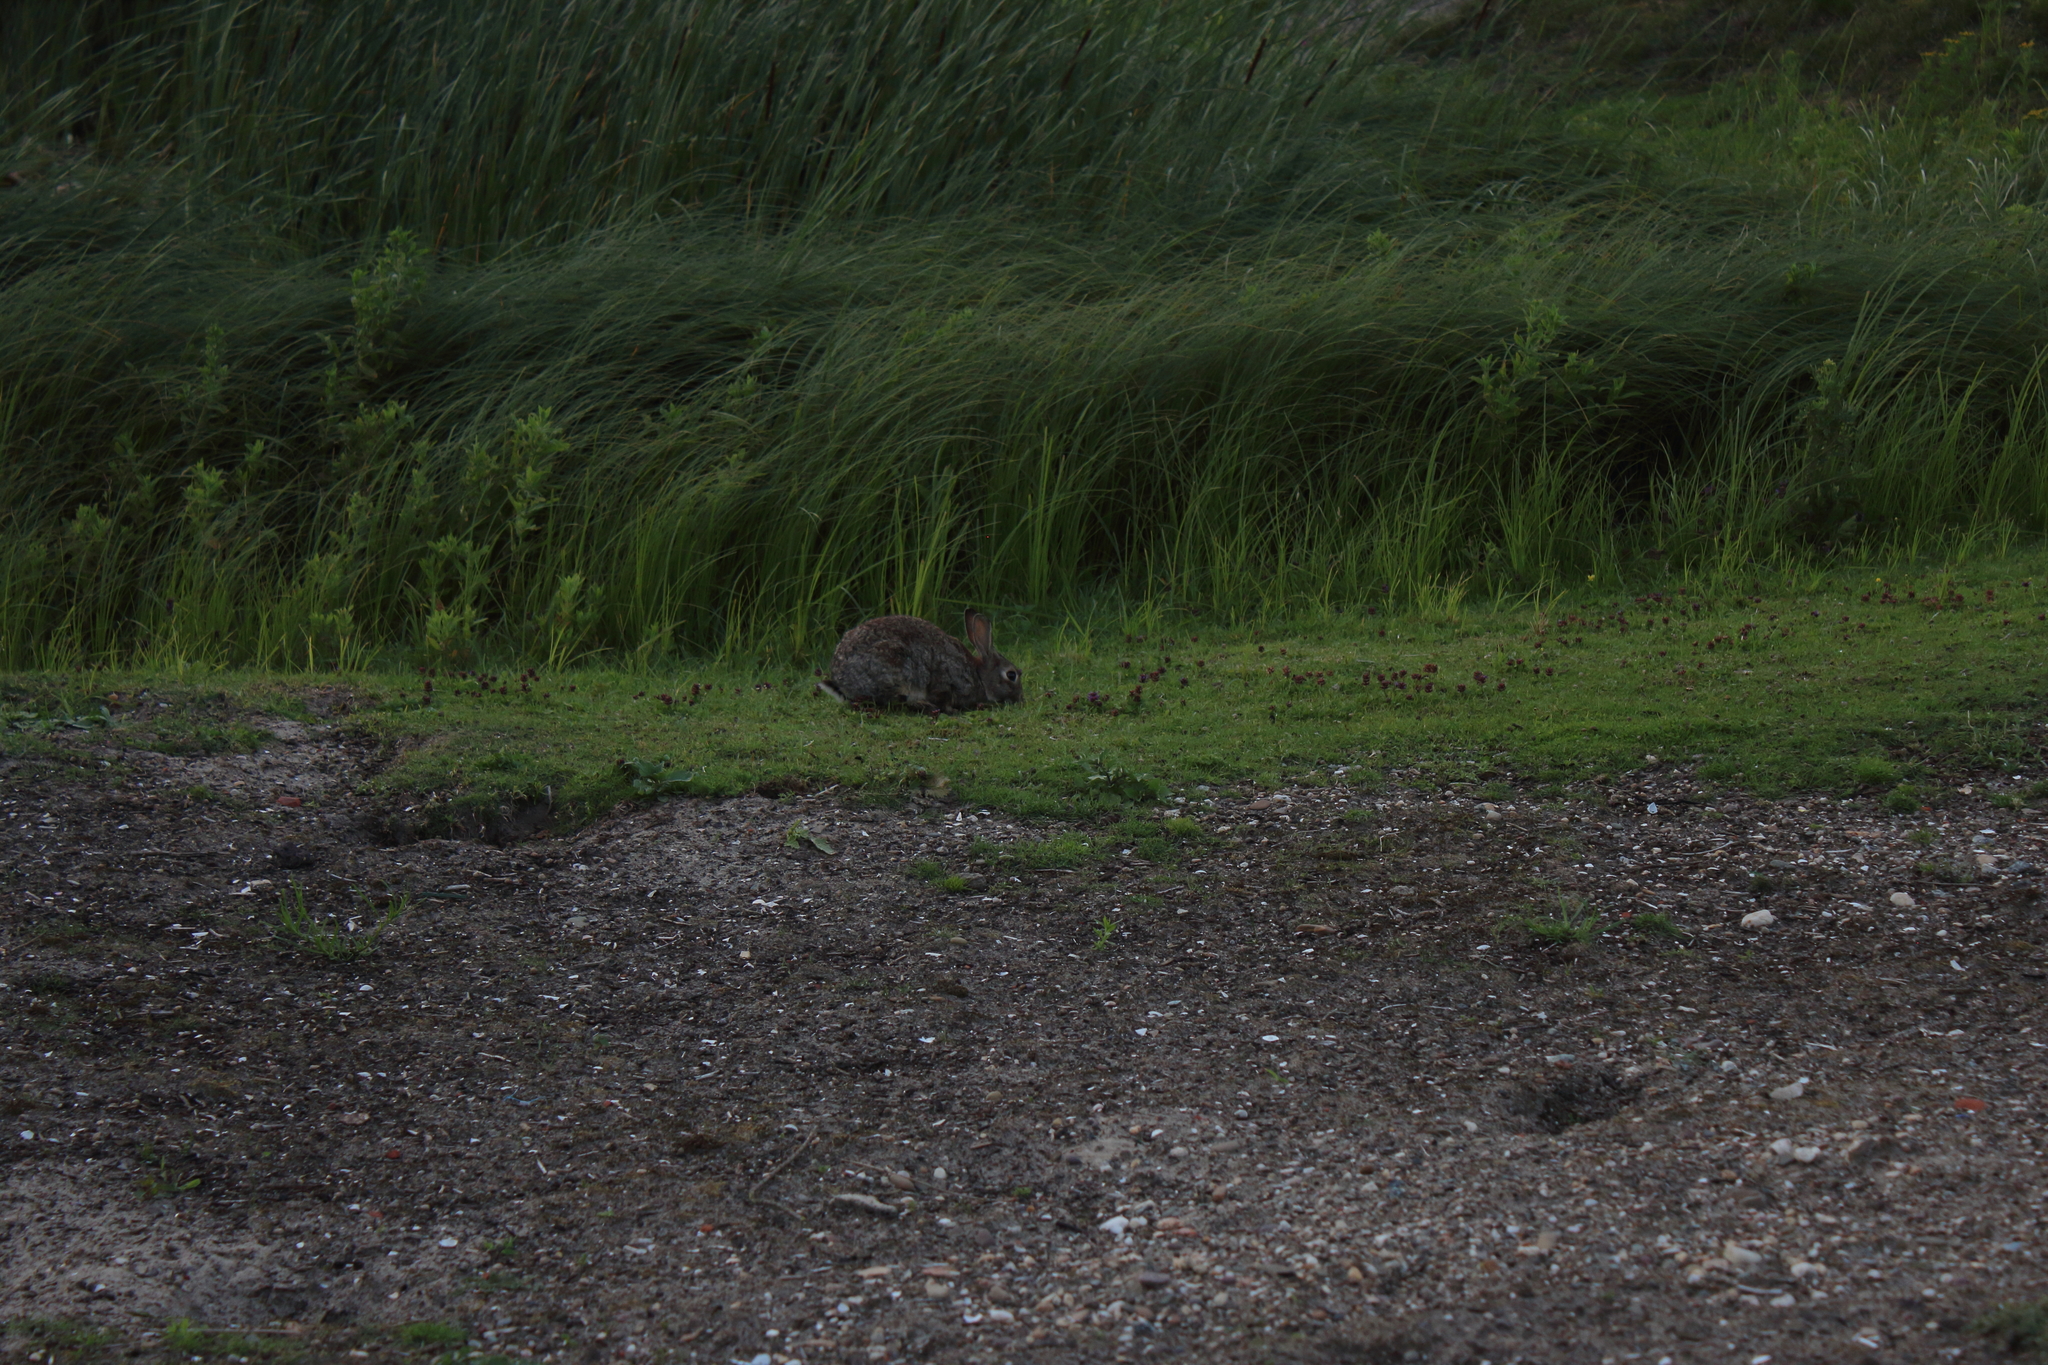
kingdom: Animalia
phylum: Chordata
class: Mammalia
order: Lagomorpha
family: Leporidae
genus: Oryctolagus
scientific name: Oryctolagus cuniculus
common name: European rabbit
